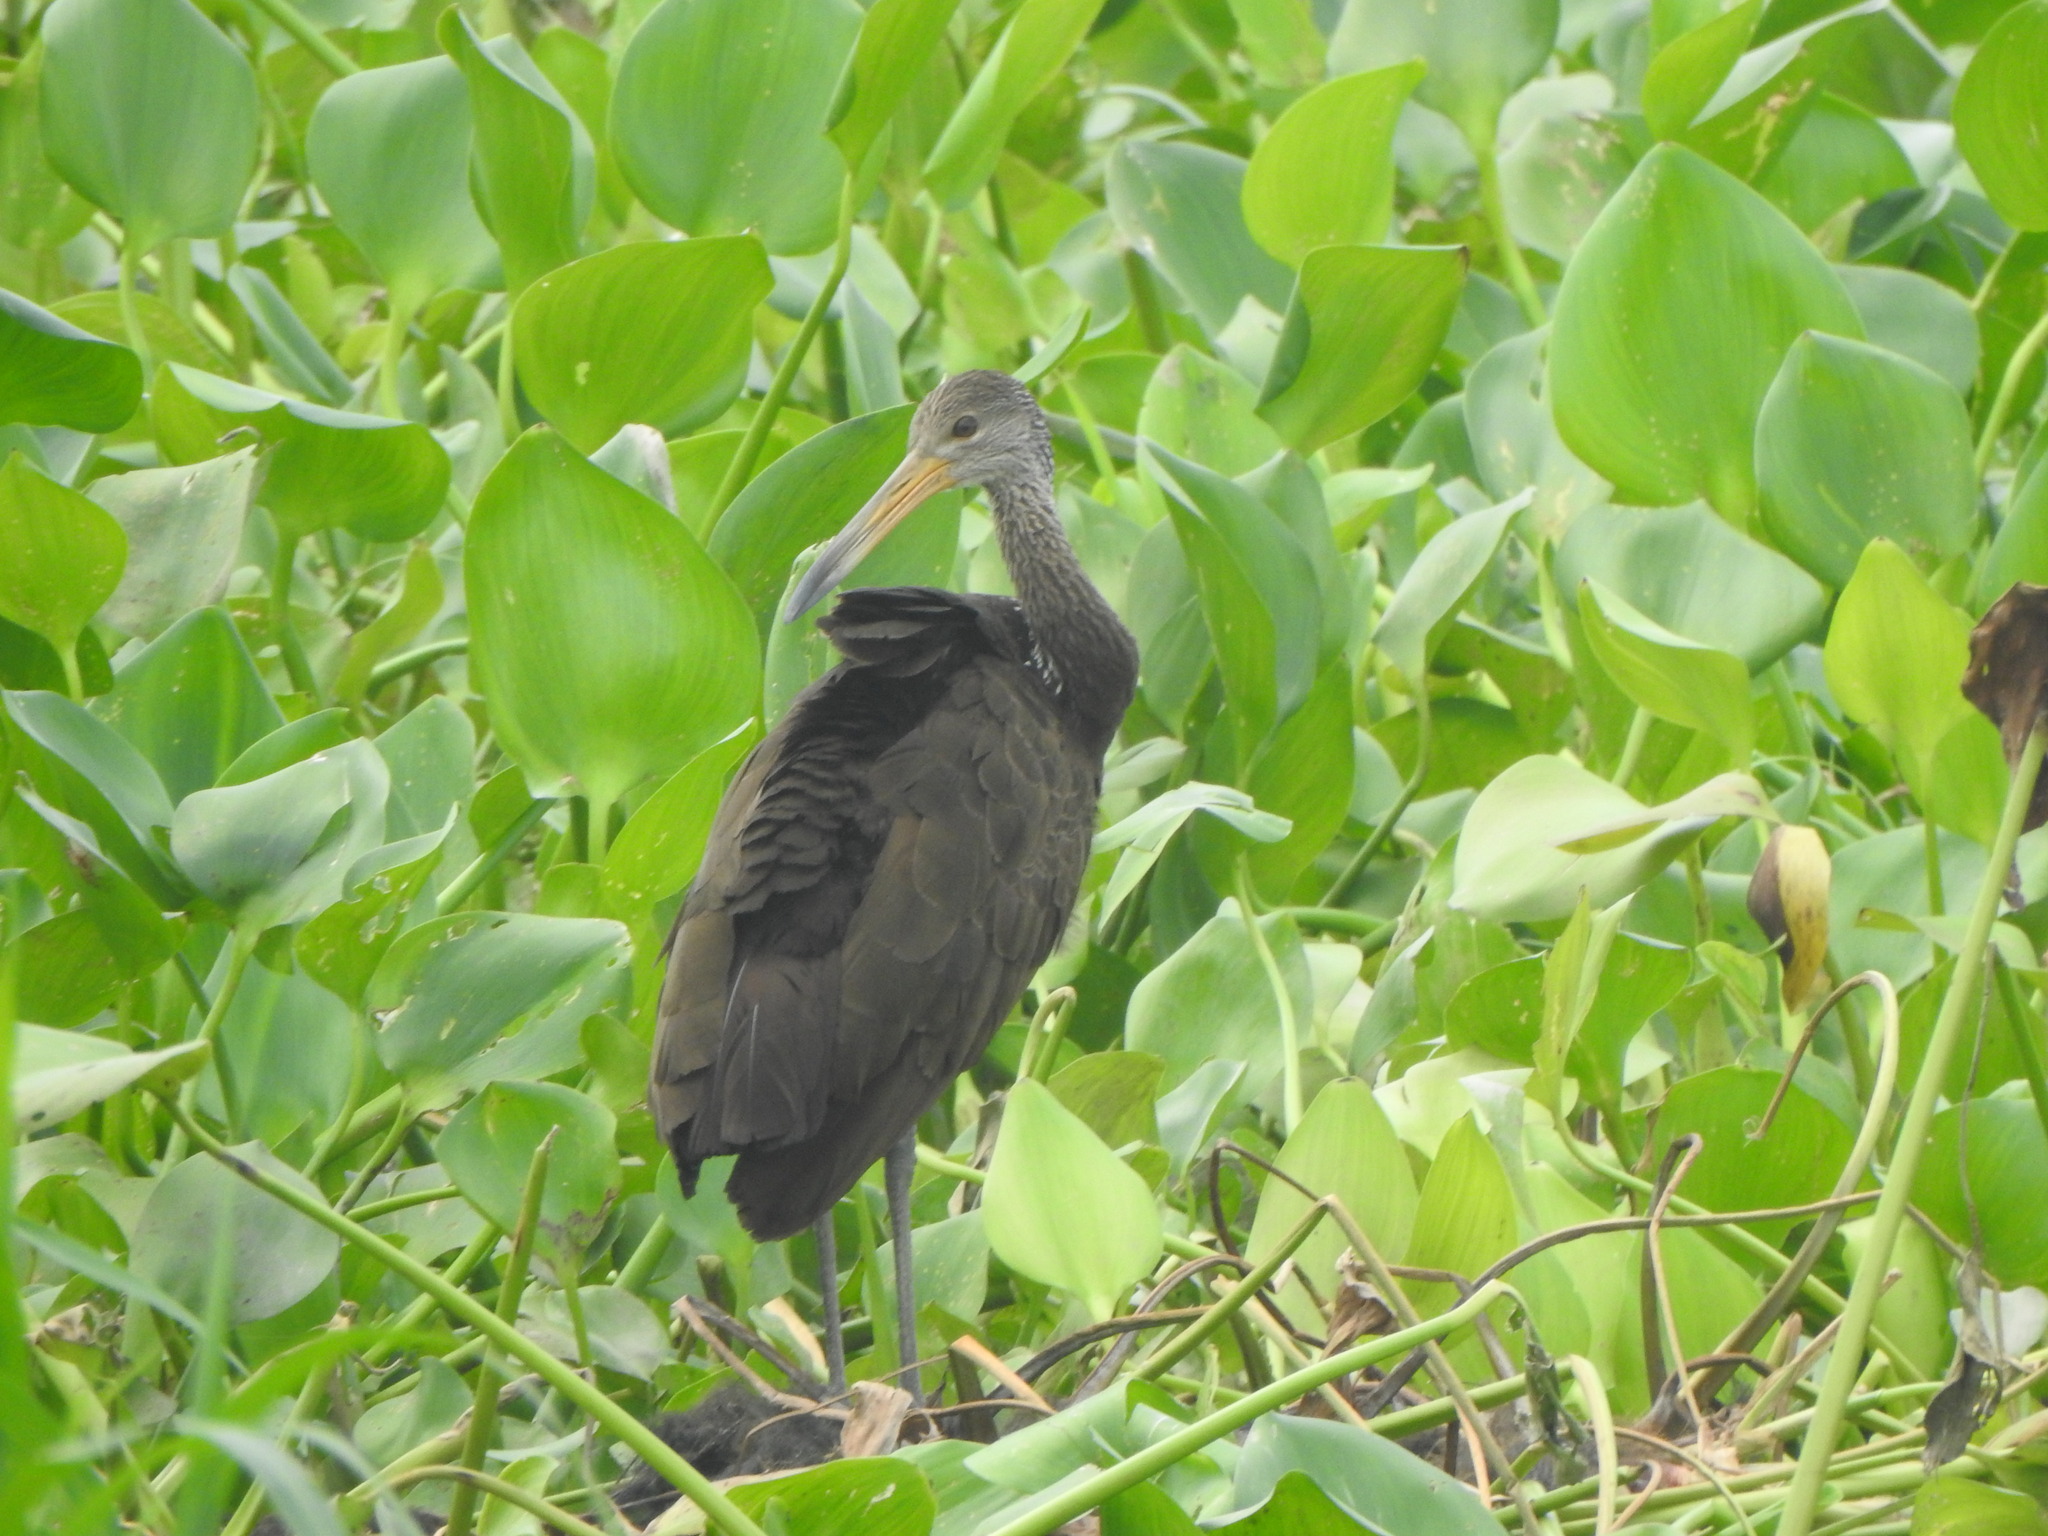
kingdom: Animalia
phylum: Chordata
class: Aves
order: Gruiformes
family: Aramidae
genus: Aramus
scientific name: Aramus guarauna
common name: Limpkin
